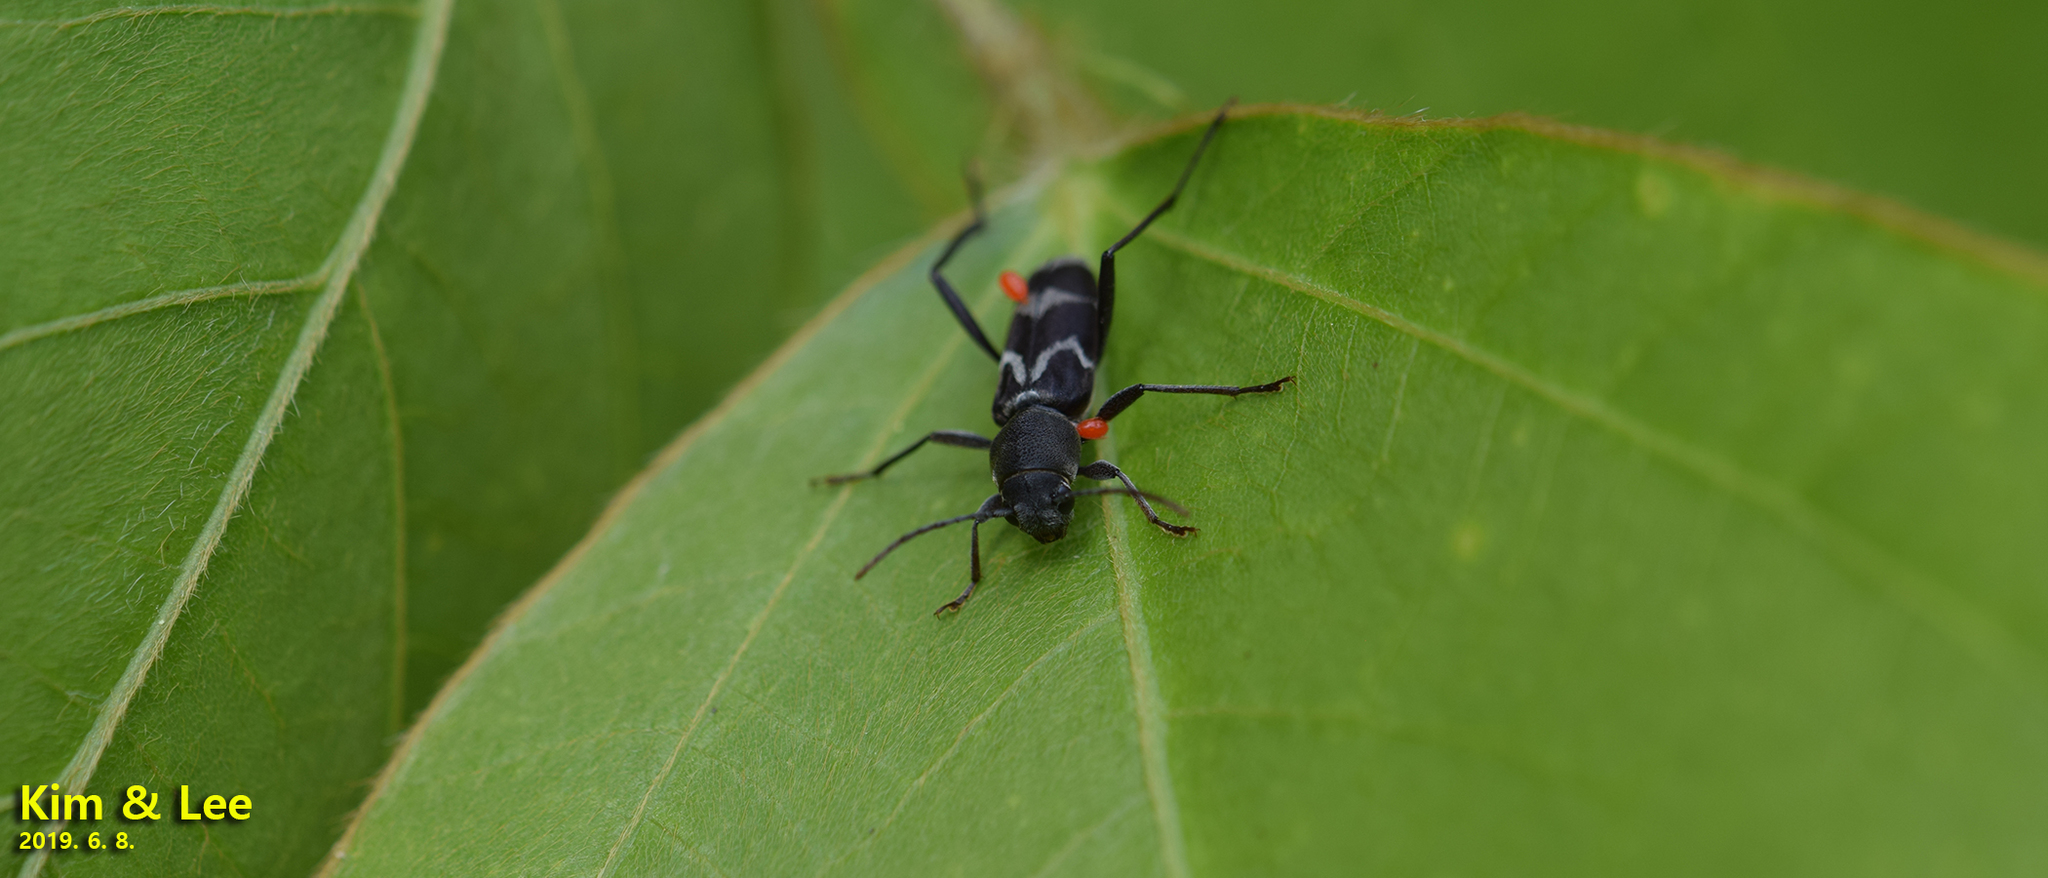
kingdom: Animalia
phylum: Arthropoda
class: Insecta
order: Coleoptera
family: Cerambycidae
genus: Perissus
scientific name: Perissus fairmairei
